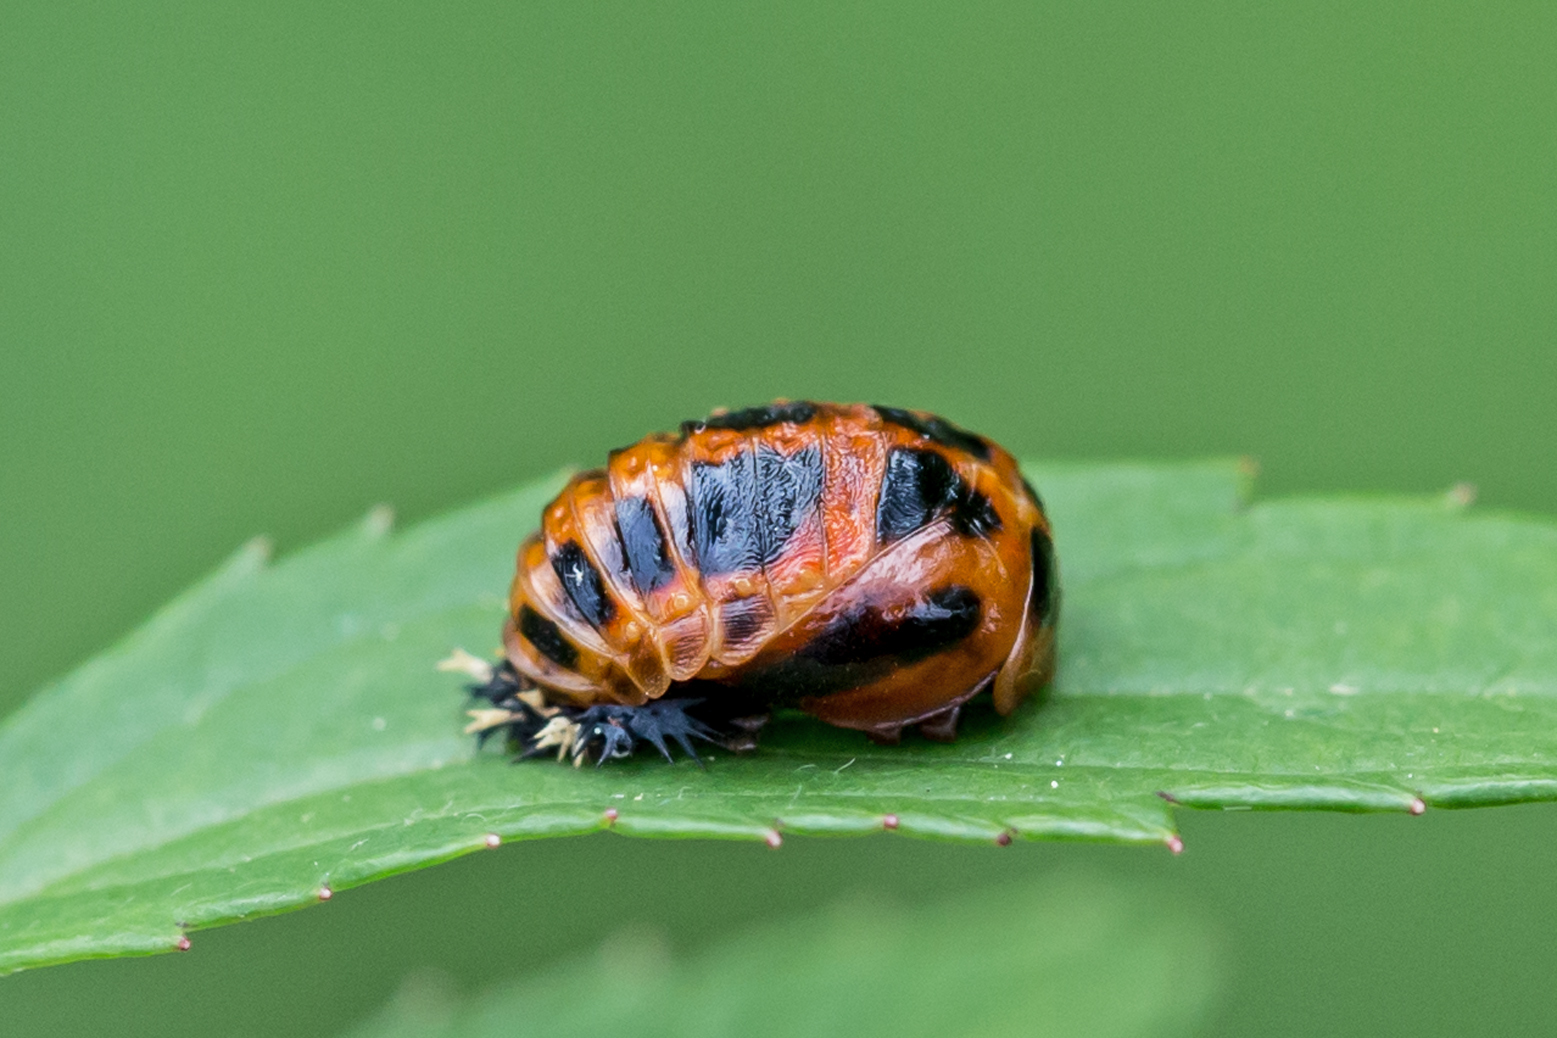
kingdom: Animalia
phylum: Arthropoda
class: Insecta
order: Coleoptera
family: Coccinellidae
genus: Harmonia
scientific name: Harmonia axyridis
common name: Harlequin ladybird
